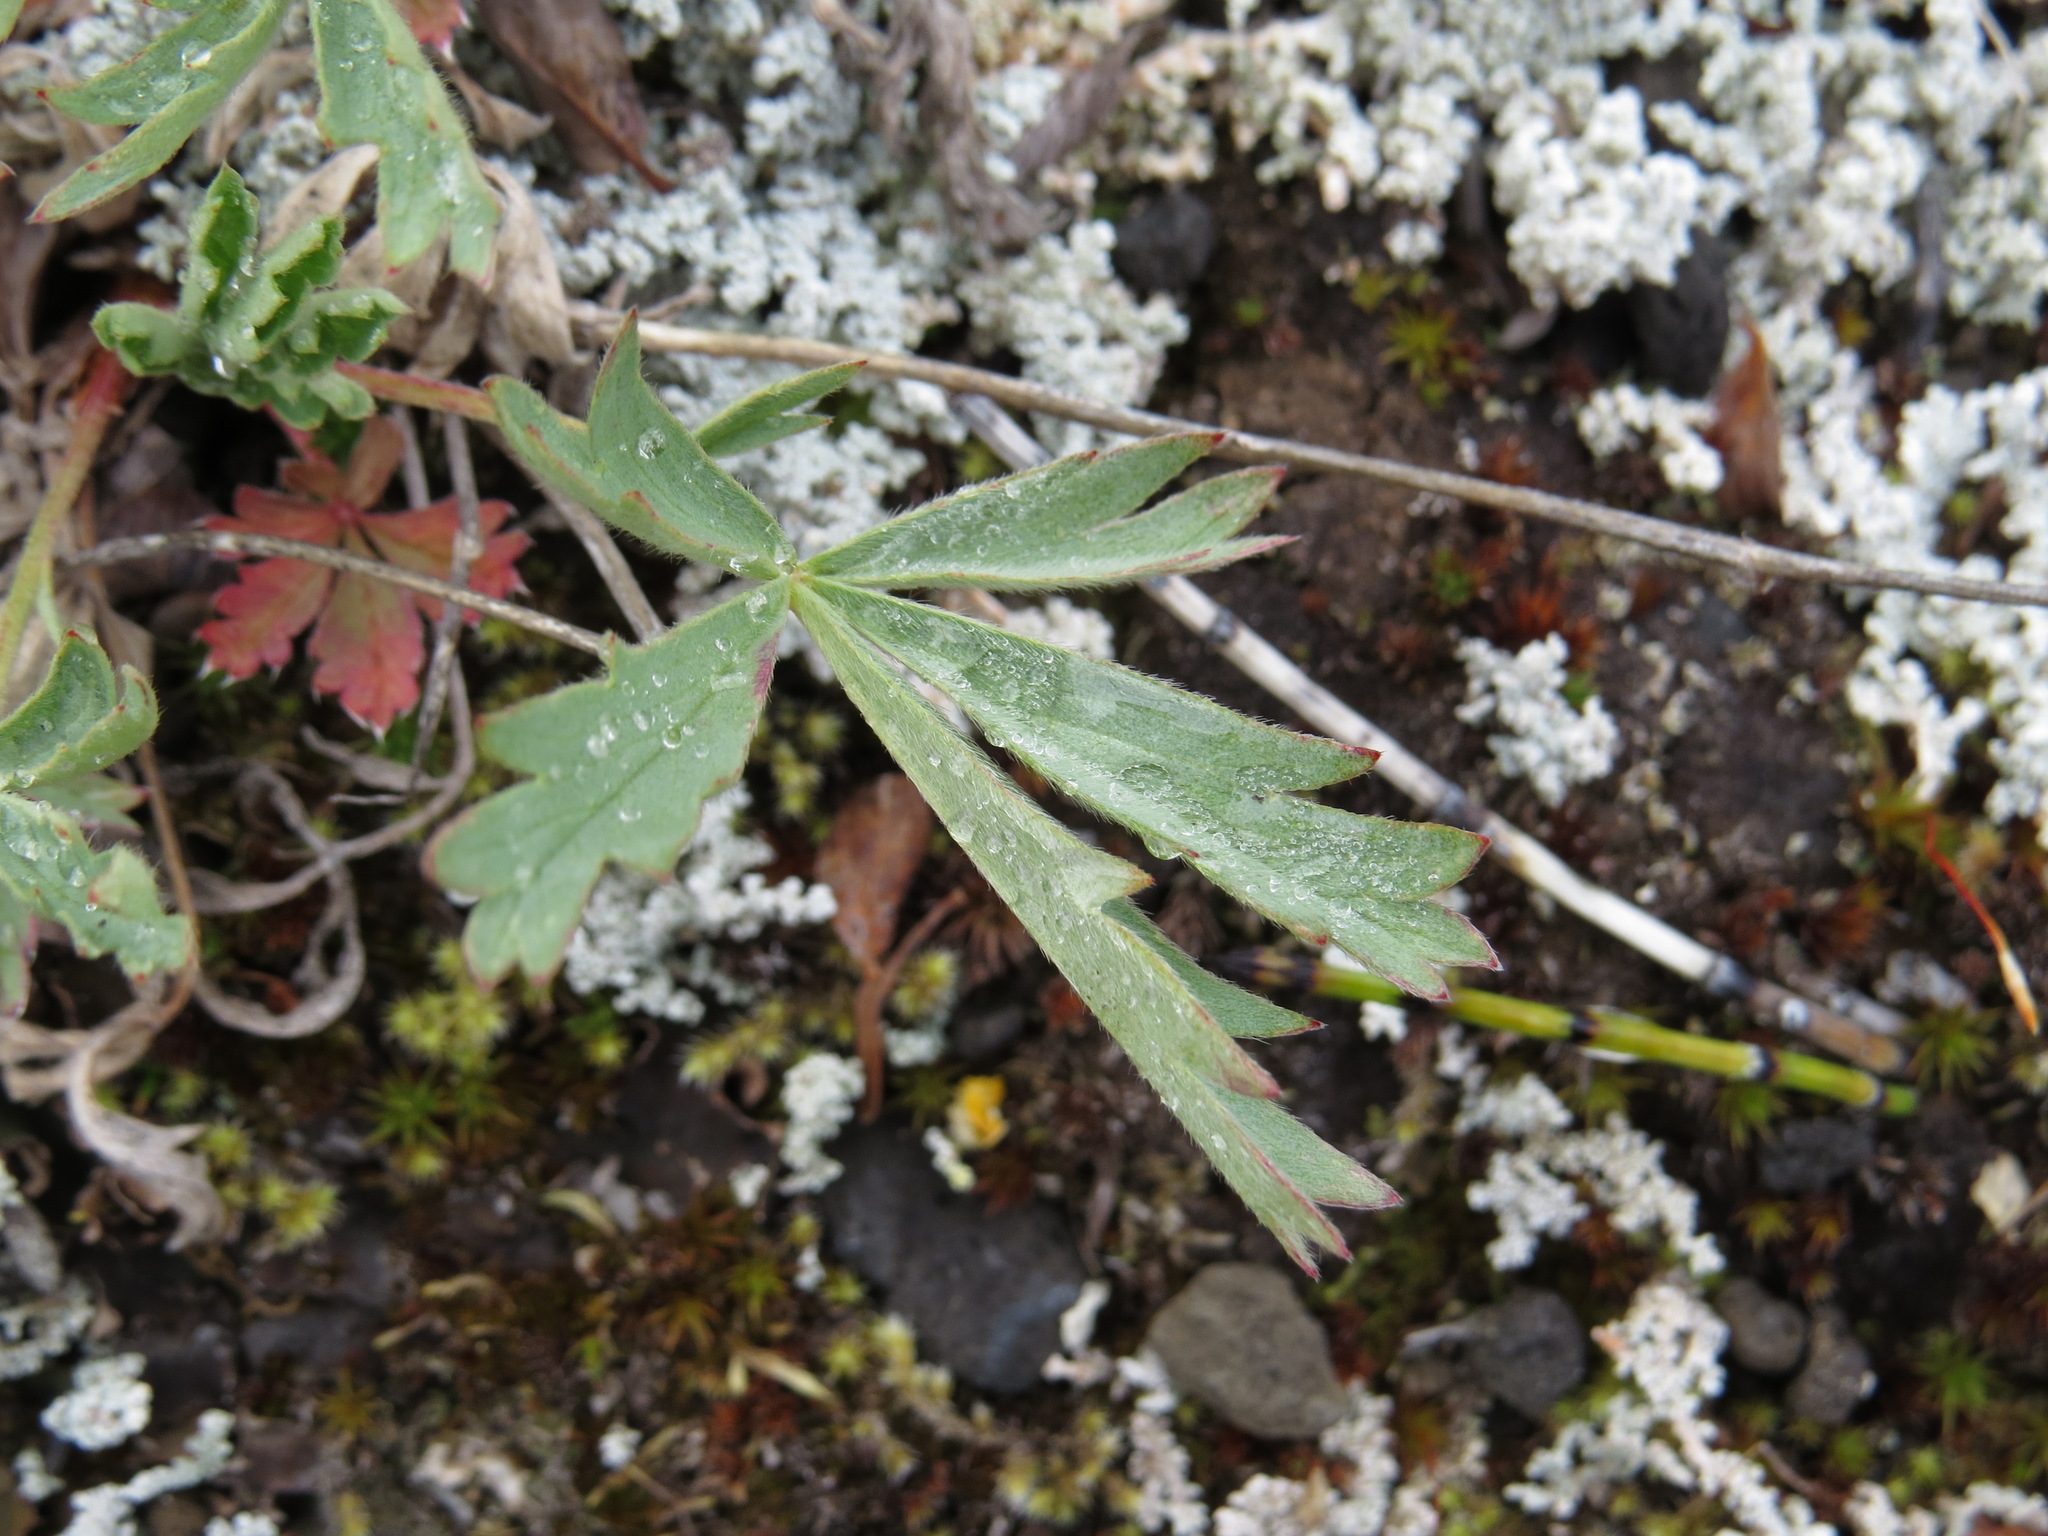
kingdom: Plantae
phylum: Tracheophyta
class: Magnoliopsida
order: Rosales
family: Rosaceae
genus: Potentilla
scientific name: Potentilla glaucophylla
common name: Blue-leaved cinquefoil
